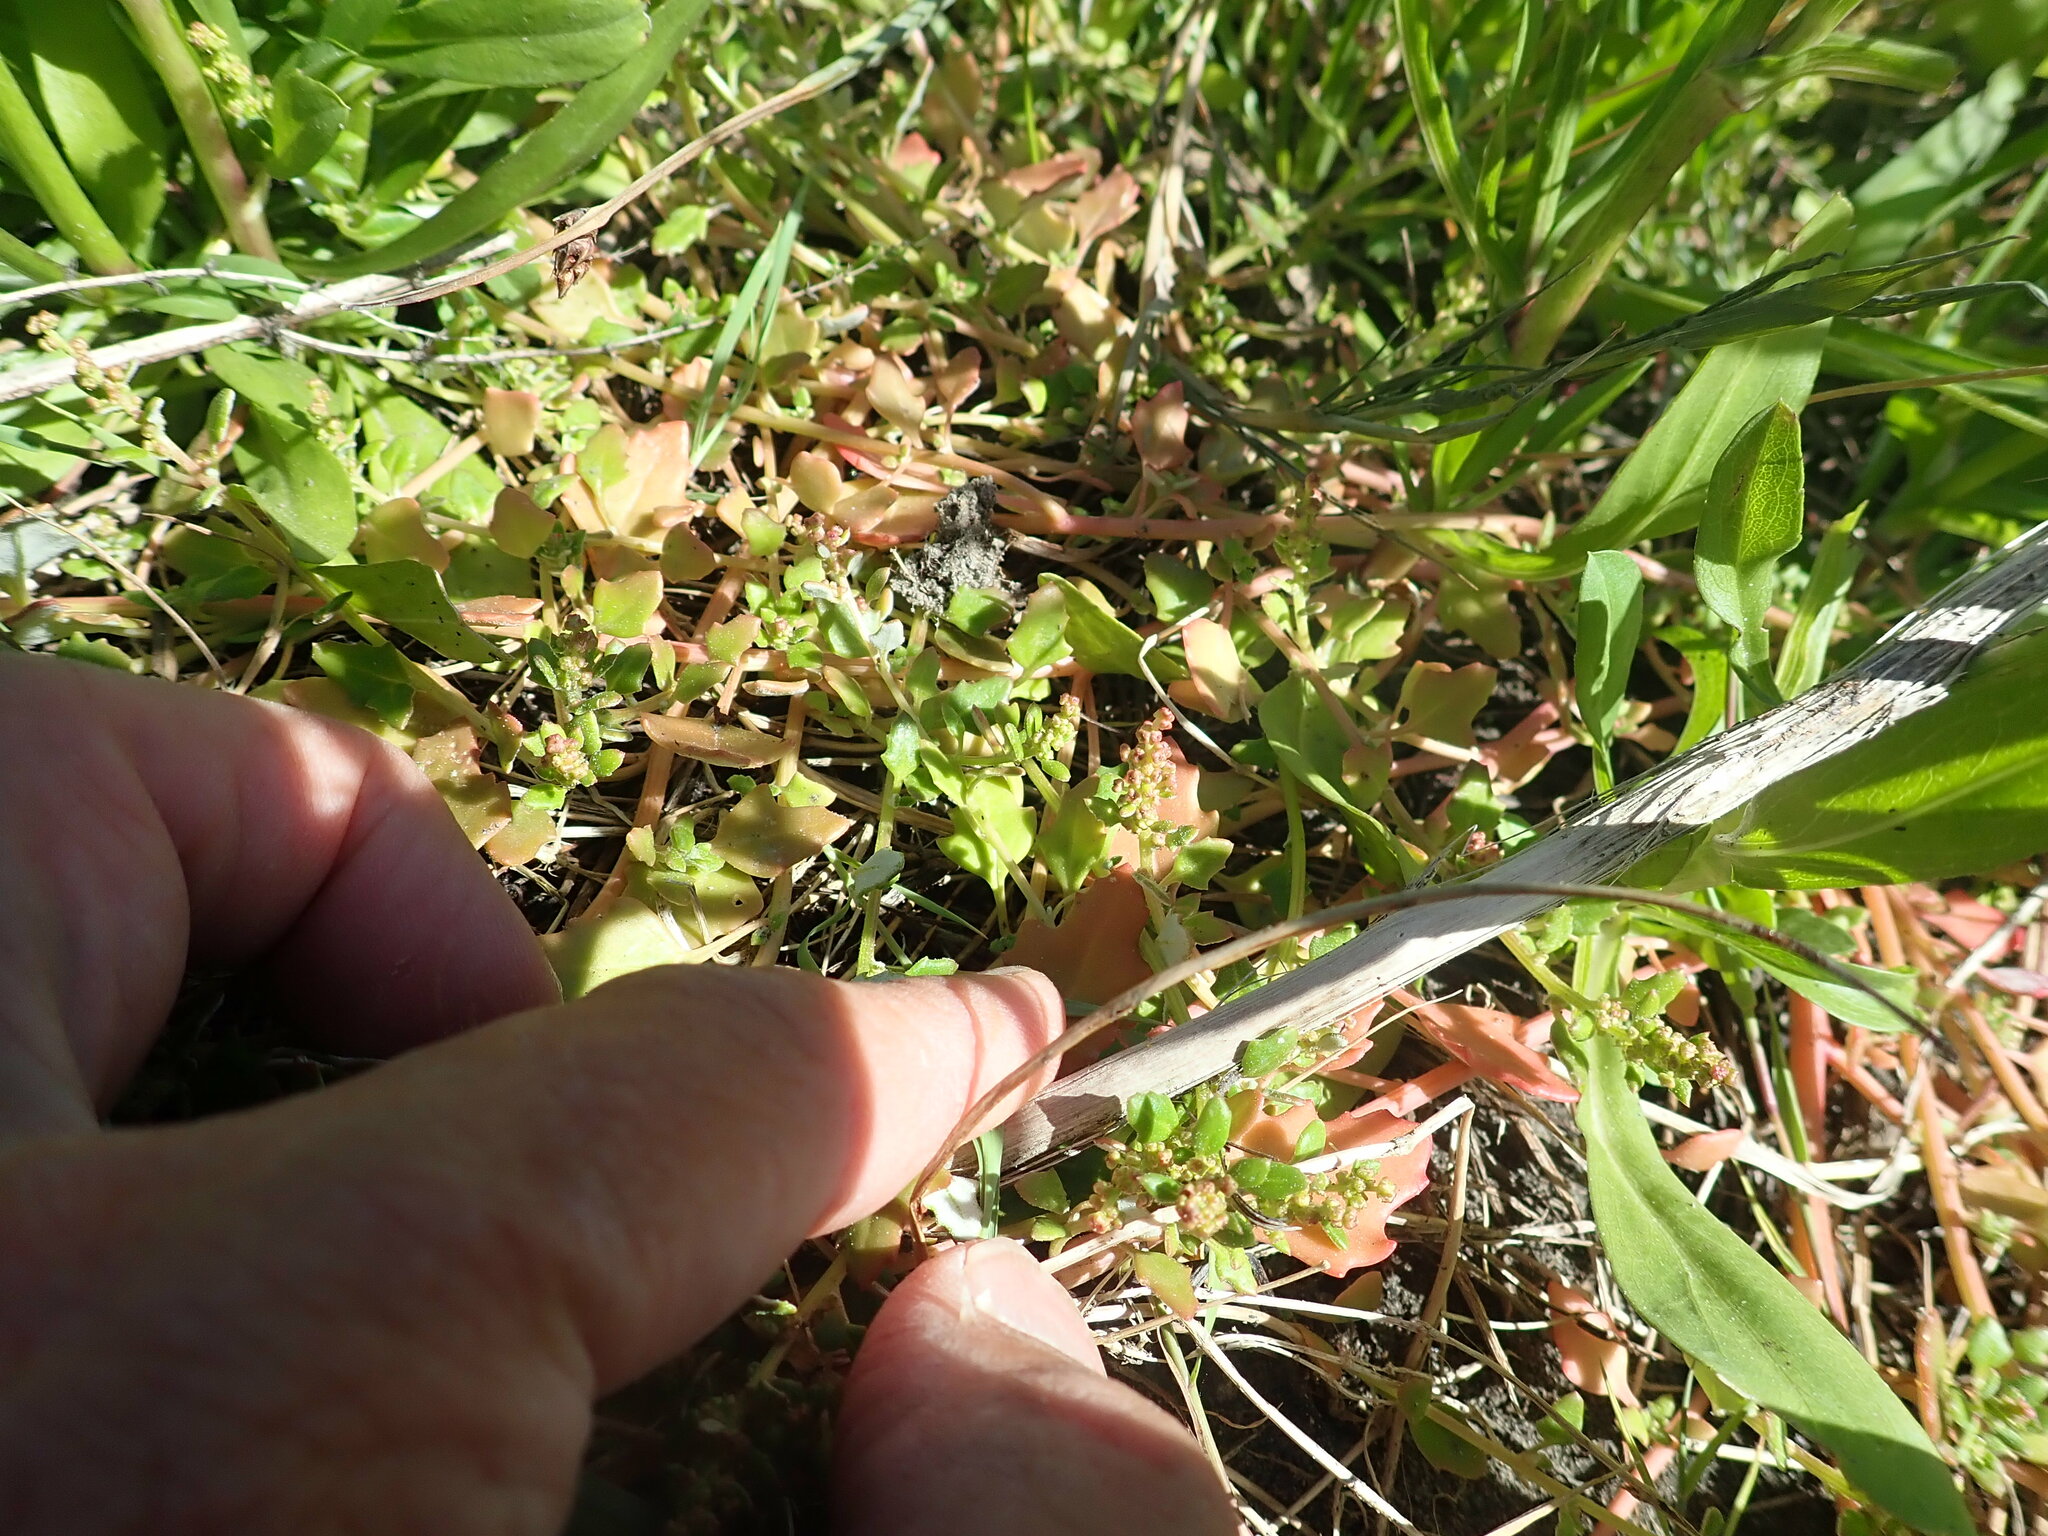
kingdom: Plantae
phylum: Tracheophyta
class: Magnoliopsida
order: Caryophyllales
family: Amaranthaceae
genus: Oxybasis
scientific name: Oxybasis ambigua
